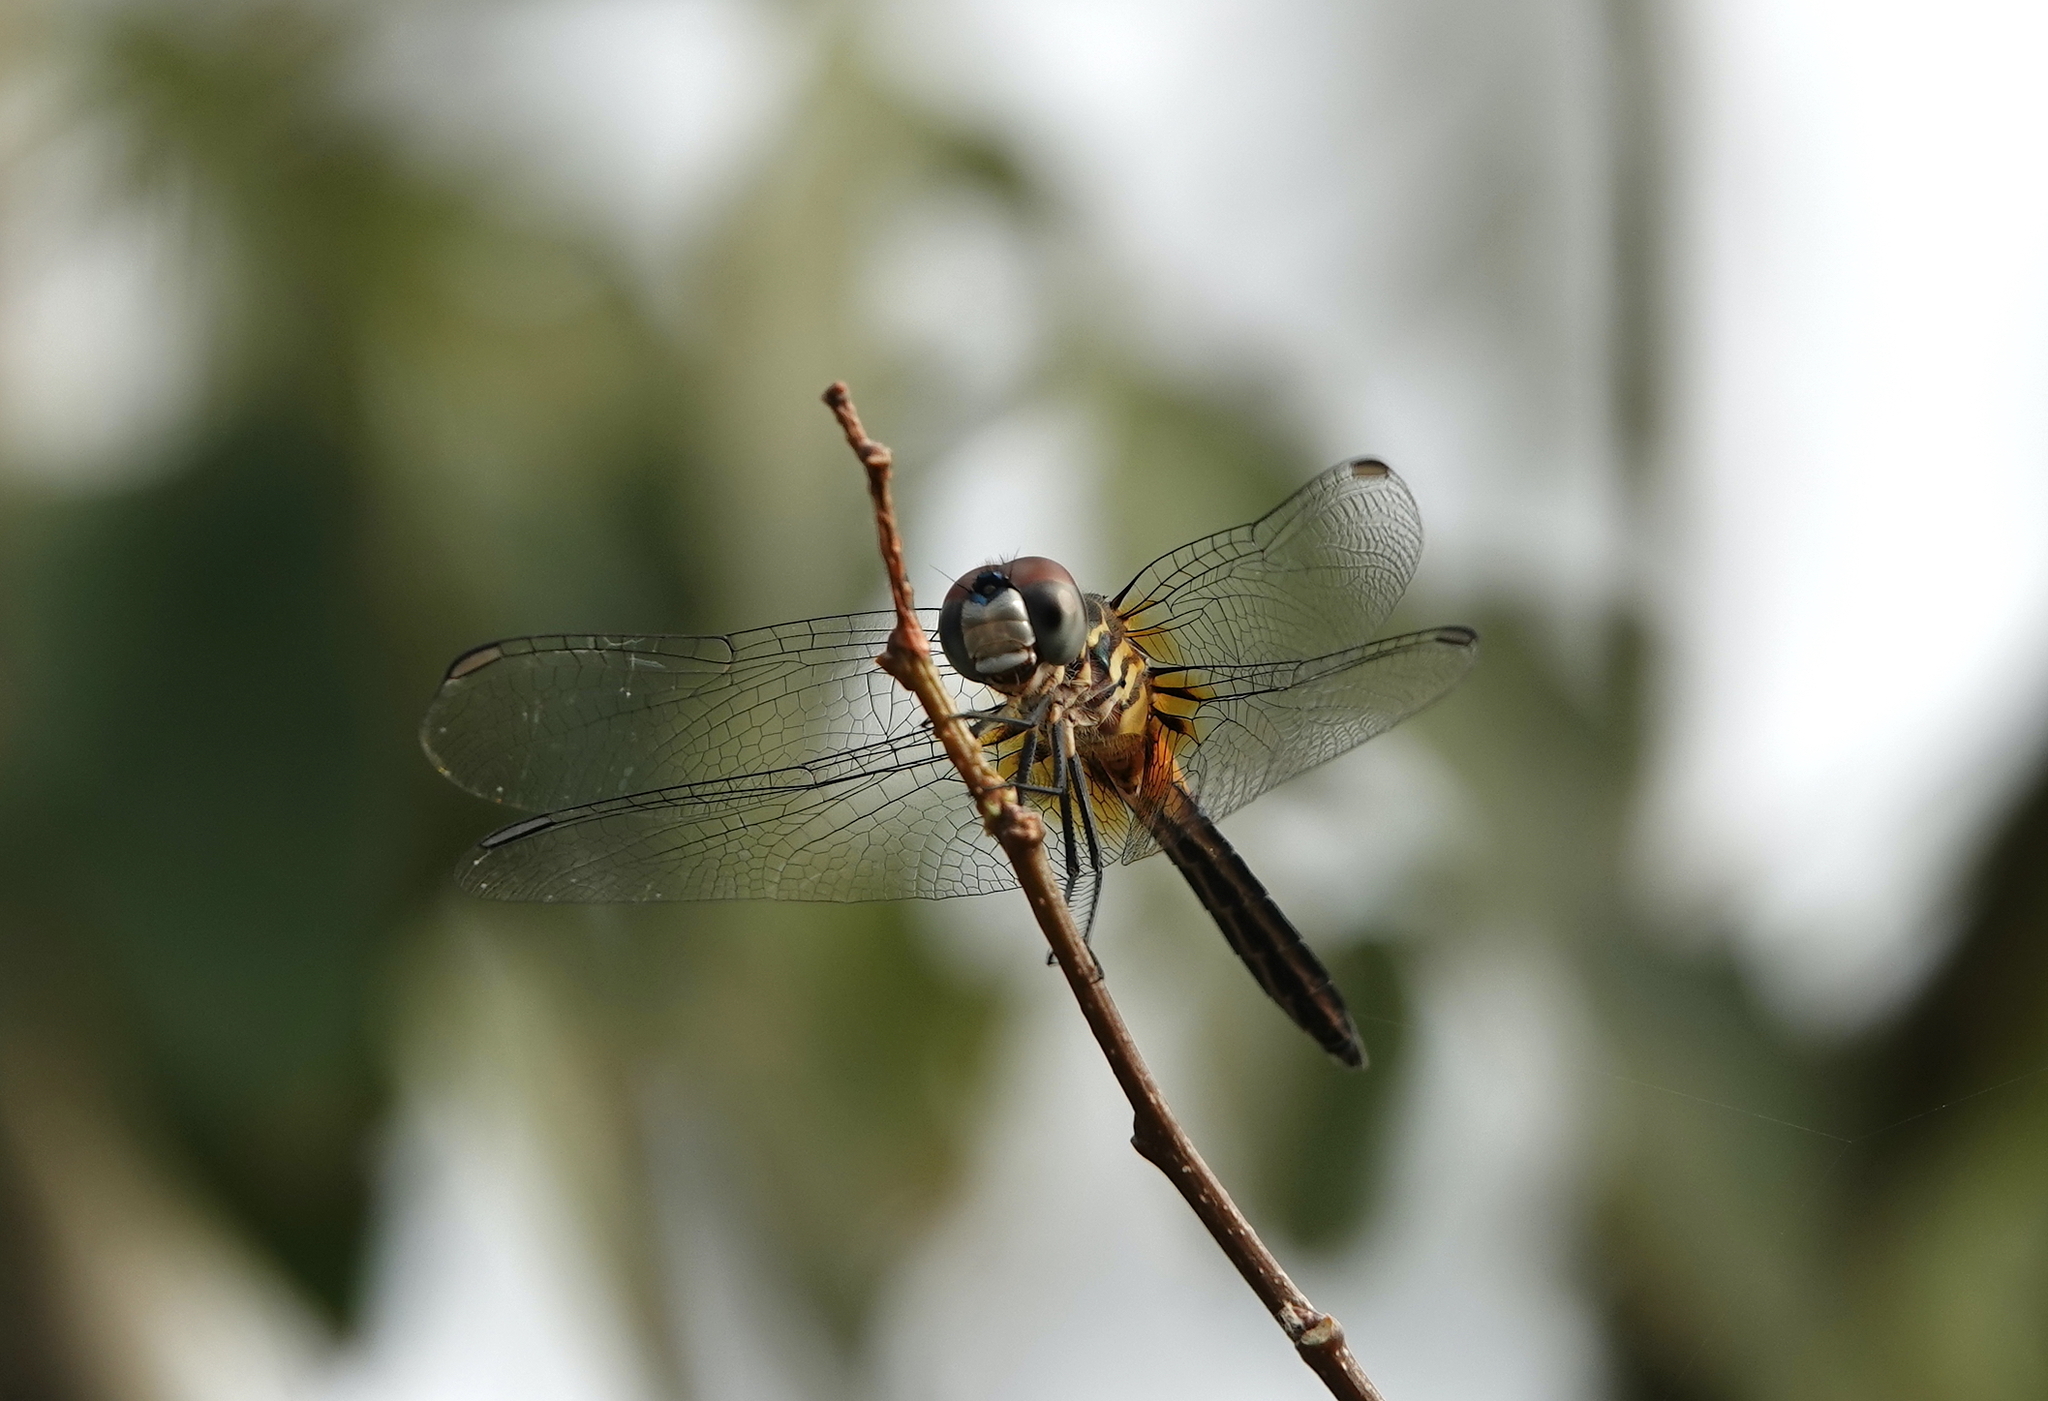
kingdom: Animalia
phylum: Arthropoda
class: Insecta
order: Odonata
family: Libellulidae
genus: Pachydiplax
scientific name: Pachydiplax longipennis
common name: Blue dasher
